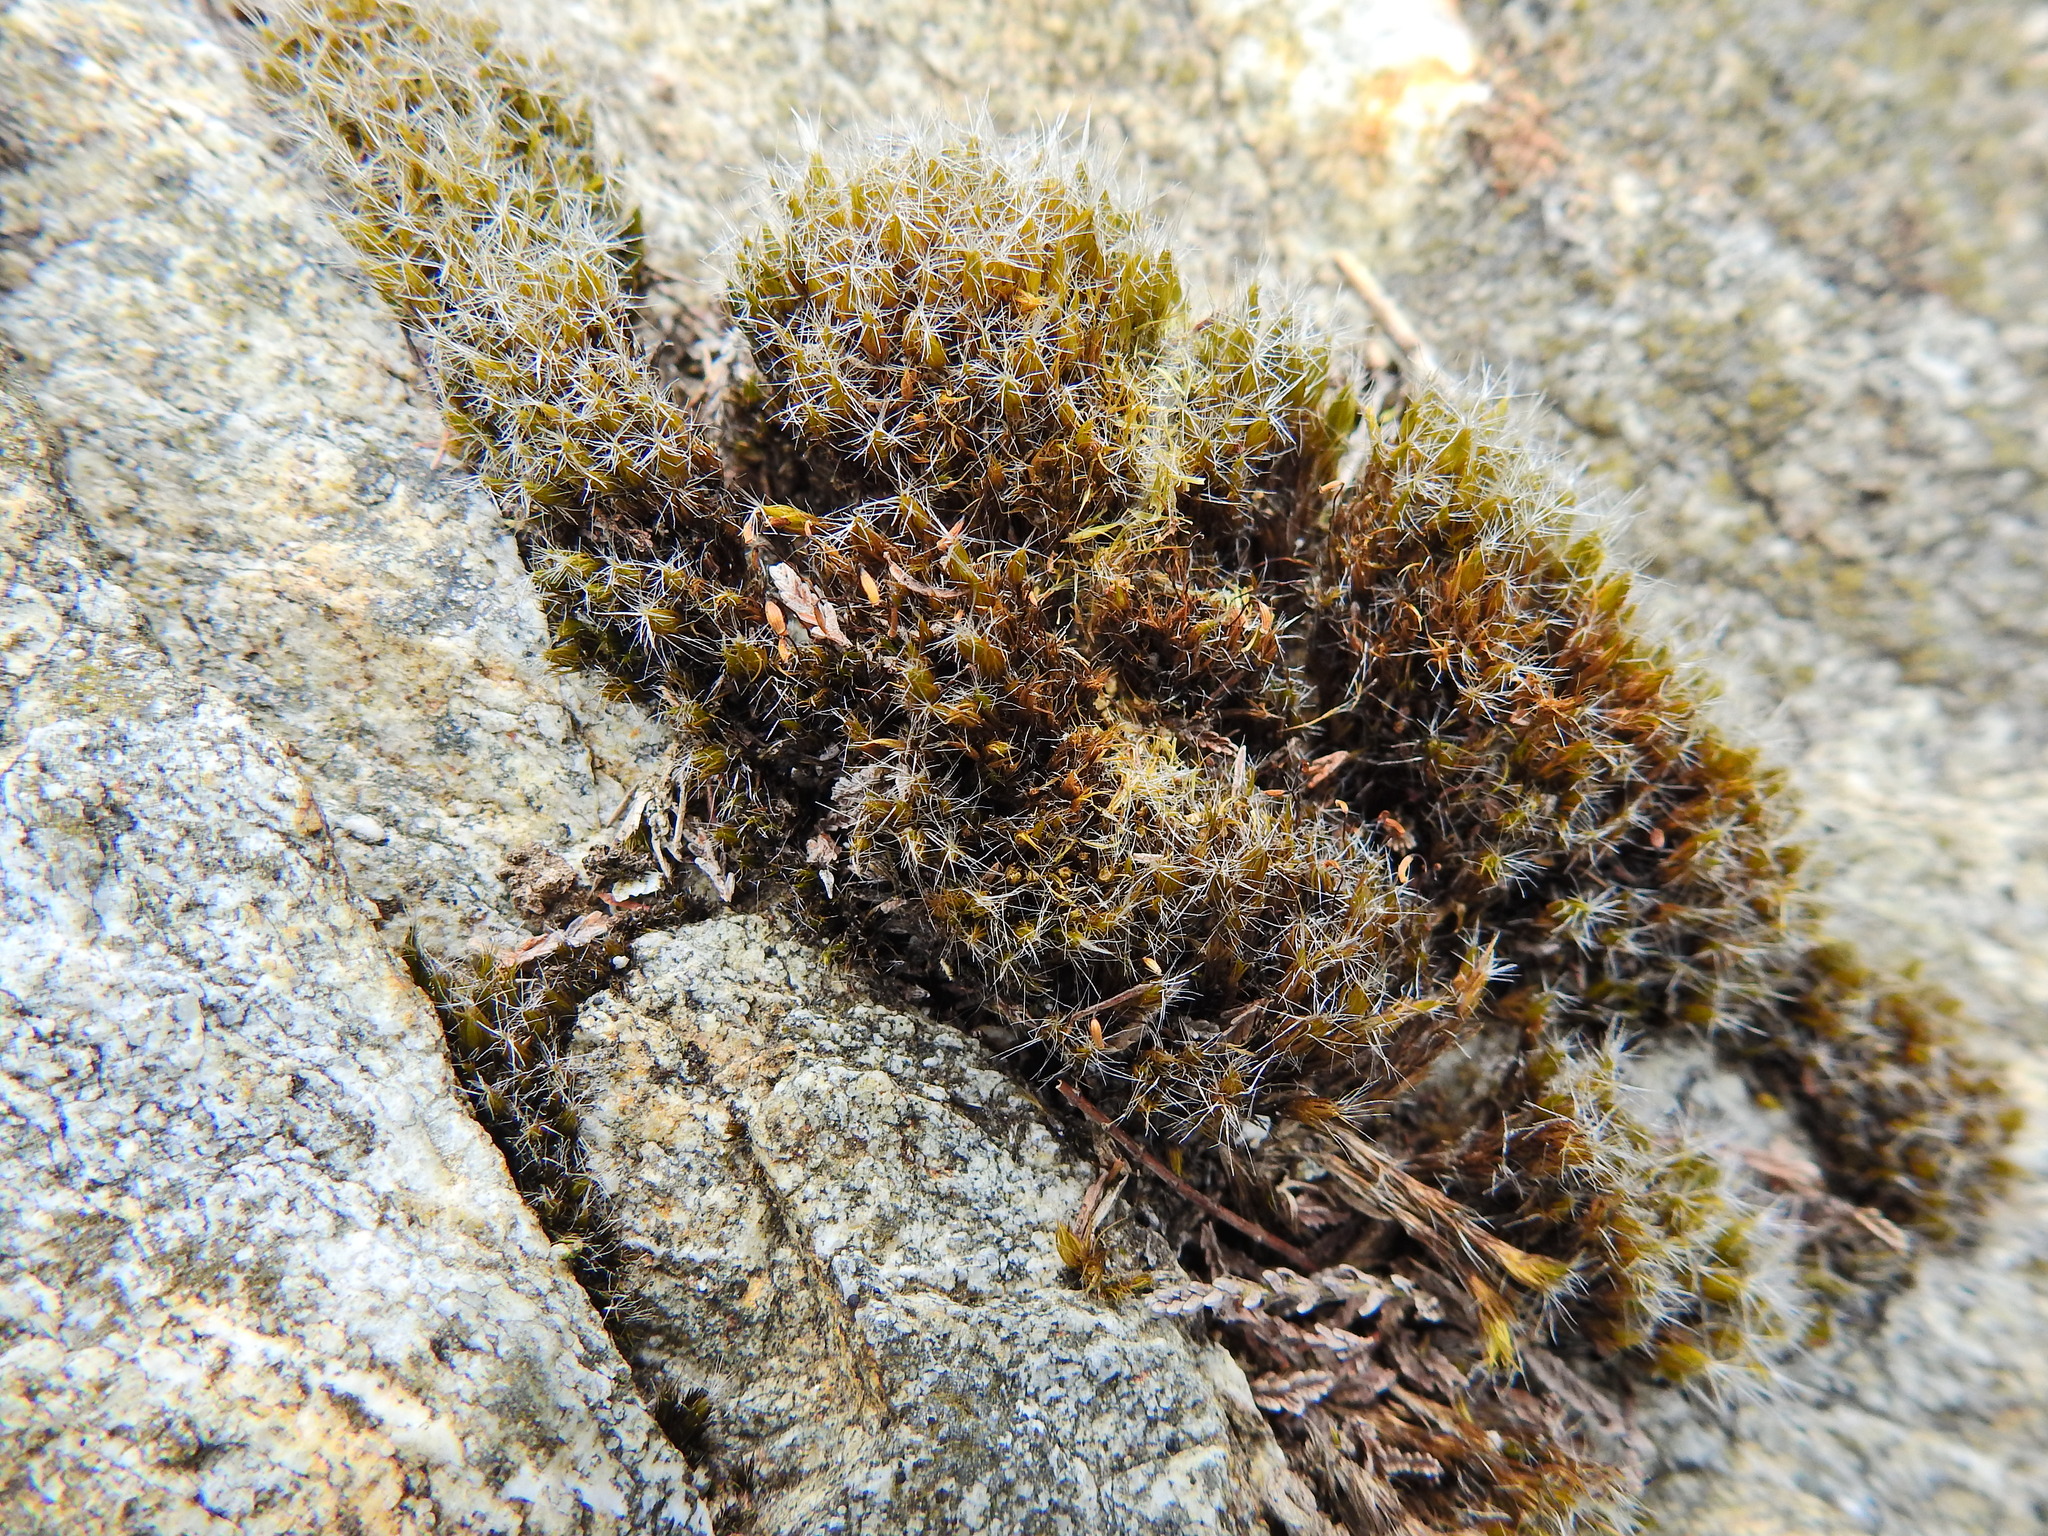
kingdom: Plantae
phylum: Bryophyta
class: Bryopsida
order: Dicranales
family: Leucobryaceae
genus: Campylopus
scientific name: Campylopus introflexus
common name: Heath star moss
